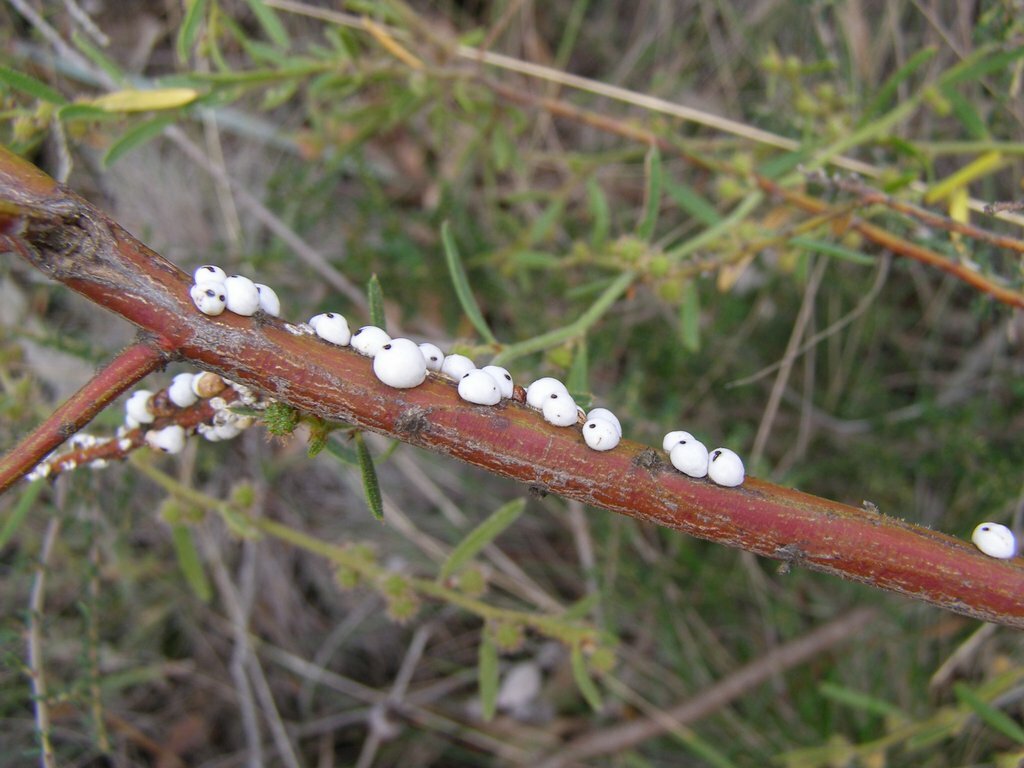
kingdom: Animalia
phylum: Arthropoda
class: Insecta
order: Hemiptera
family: Coccidae
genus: Cryptes
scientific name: Cryptes baccatus
